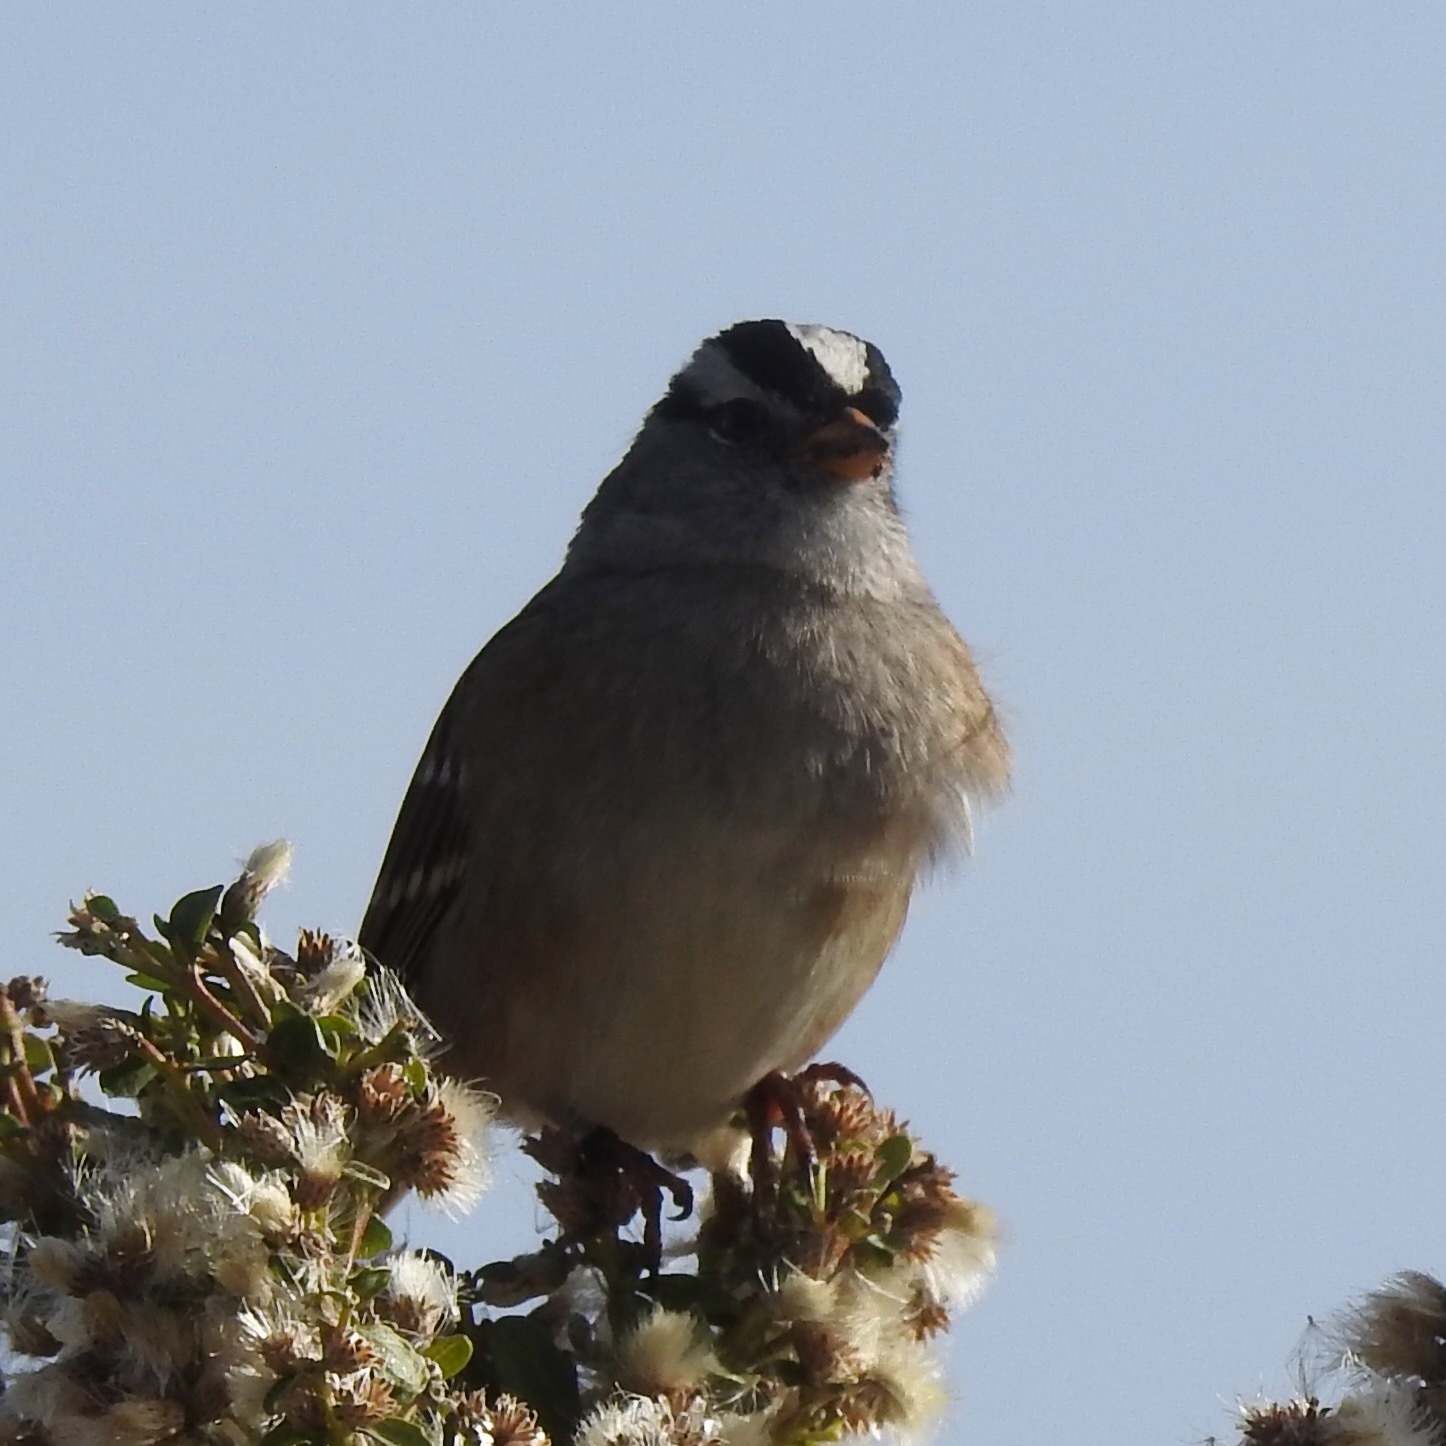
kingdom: Animalia
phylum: Chordata
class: Aves
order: Passeriformes
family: Passerellidae
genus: Zonotrichia
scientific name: Zonotrichia leucophrys
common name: White-crowned sparrow
